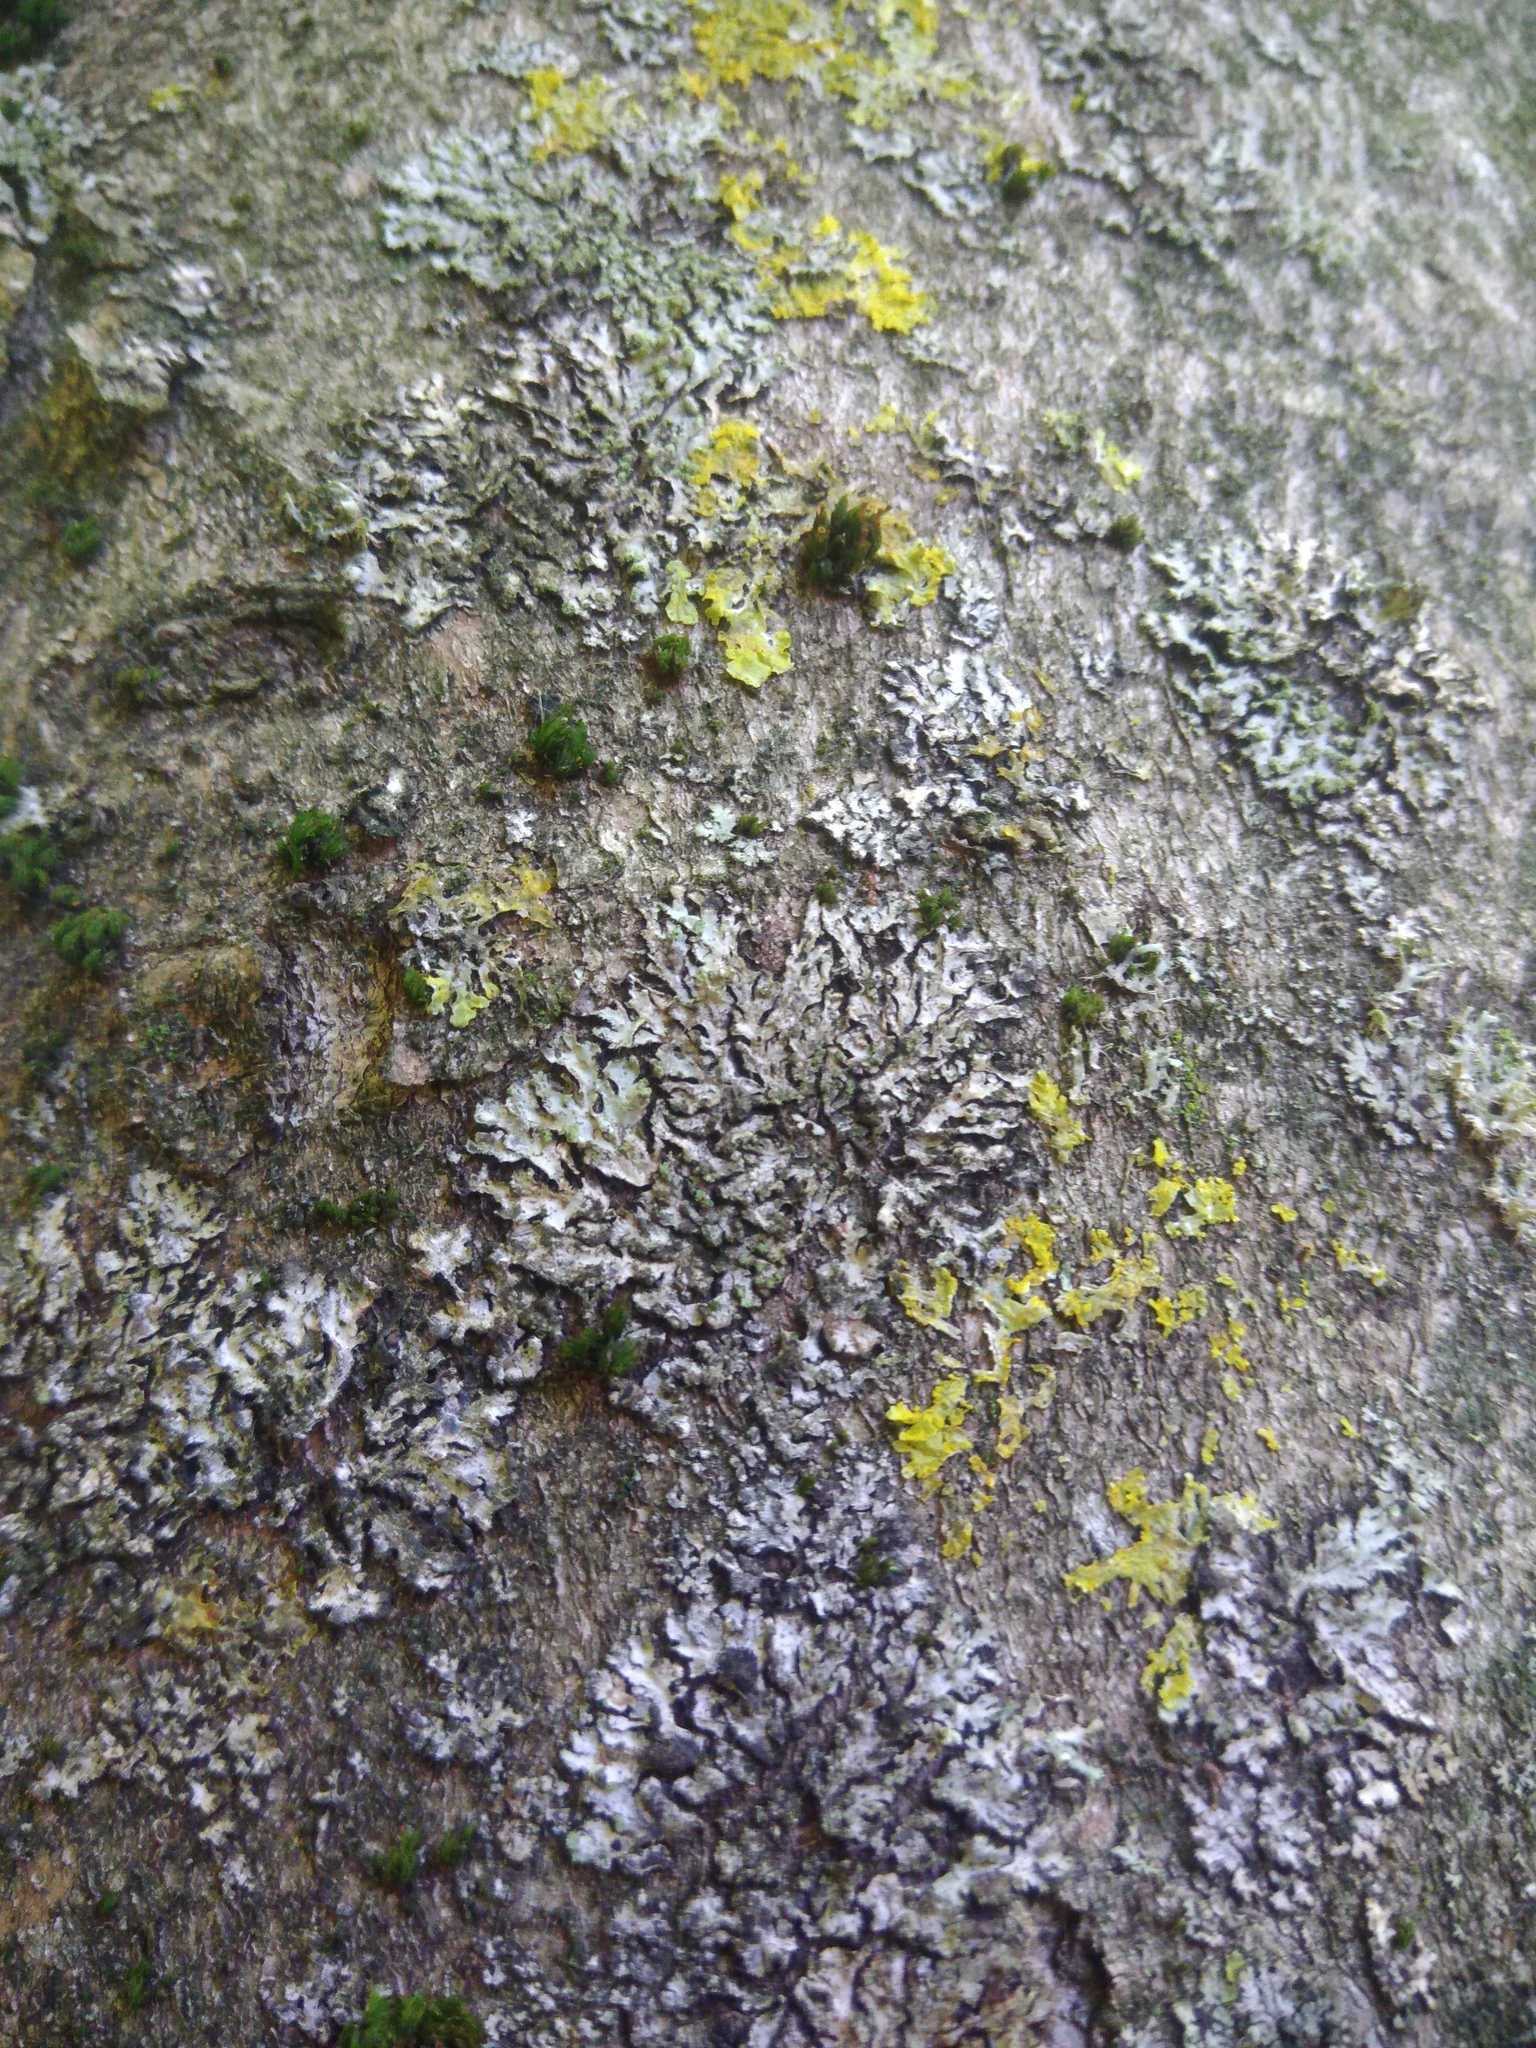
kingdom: Fungi
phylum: Ascomycota
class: Lecanoromycetes
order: Caliciales
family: Physciaceae
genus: Phaeophyscia
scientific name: Phaeophyscia orbicularis
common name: Mealy shadow lichen
